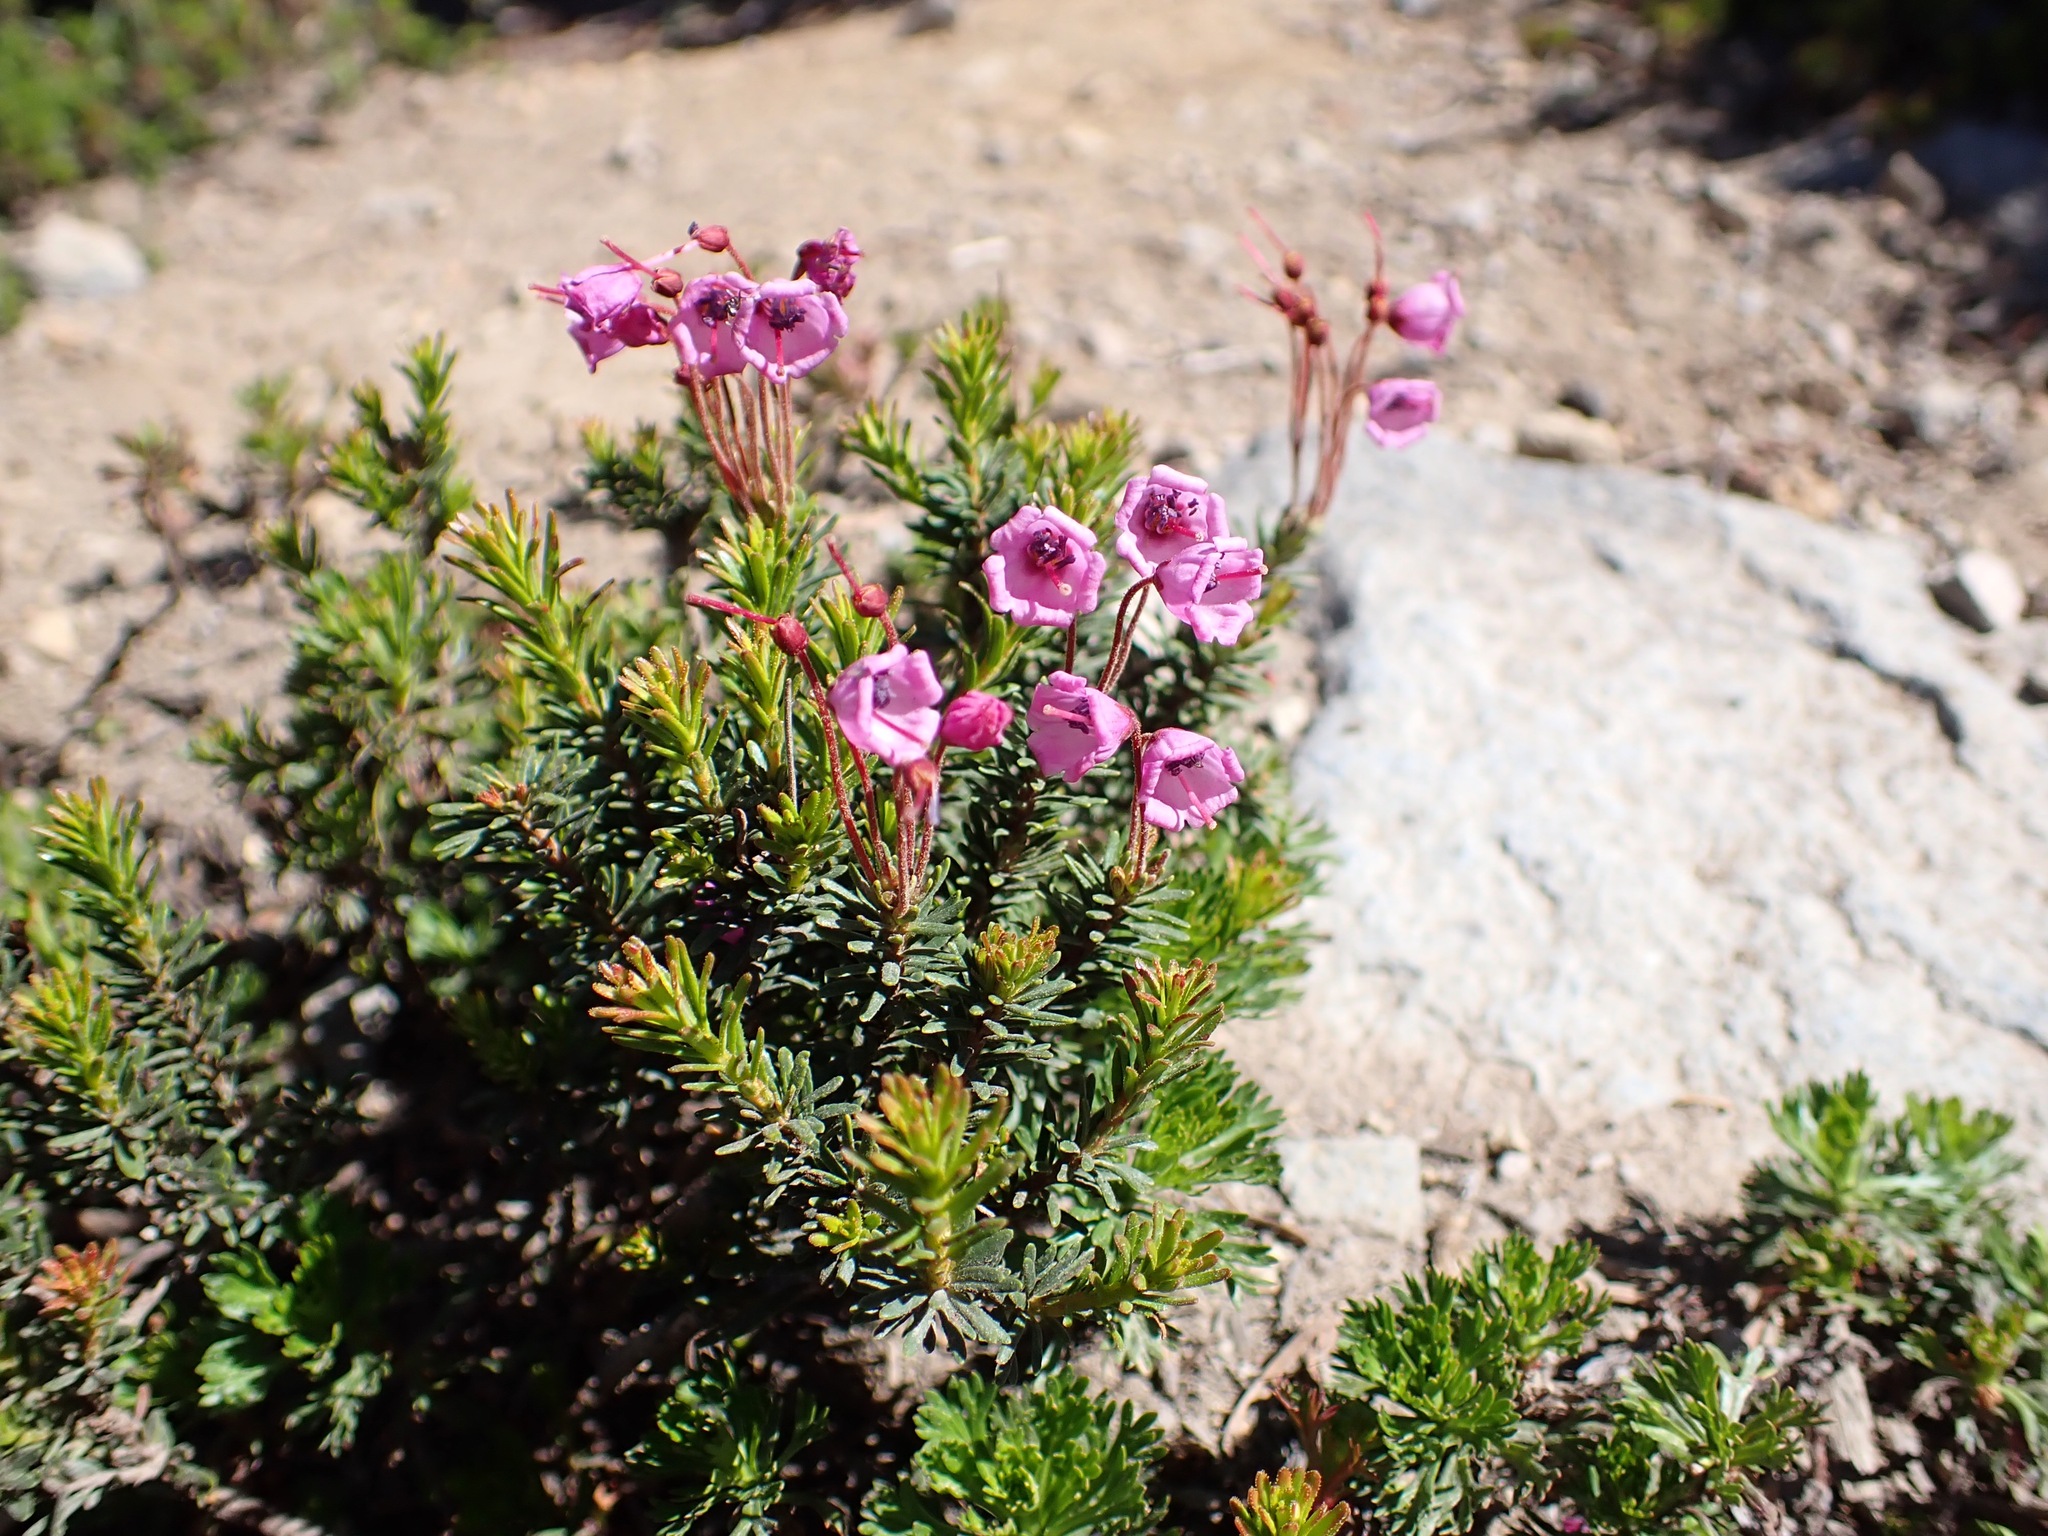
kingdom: Plantae
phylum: Tracheophyta
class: Magnoliopsida
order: Ericales
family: Ericaceae
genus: Phyllodoce
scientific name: Phyllodoce empetriformis
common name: Pink mountain heather
